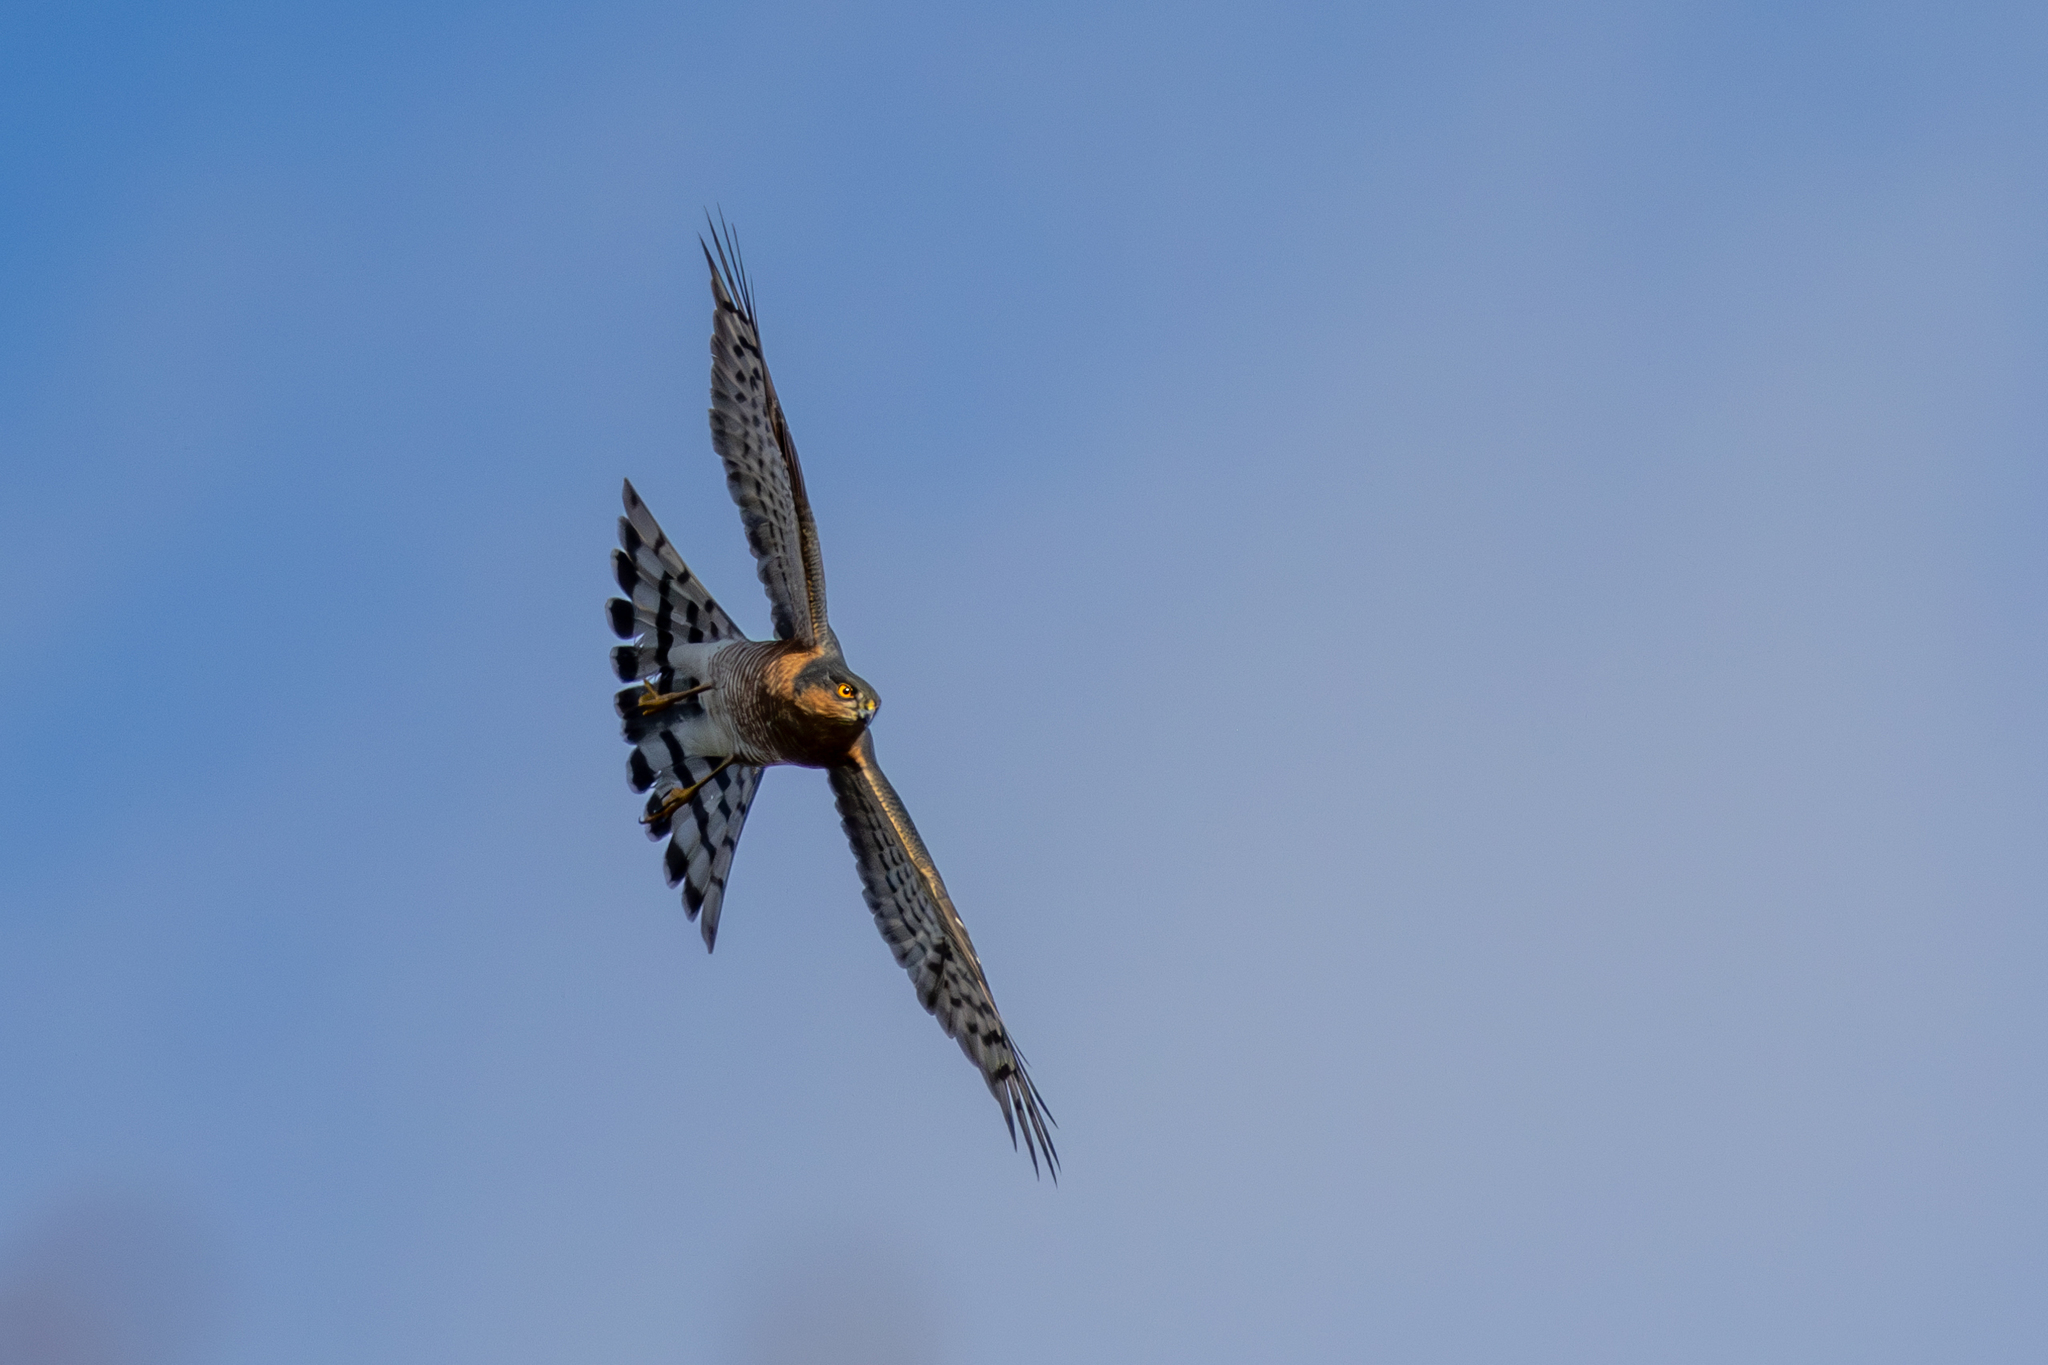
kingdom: Animalia
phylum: Chordata
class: Aves
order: Accipitriformes
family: Accipitridae
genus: Accipiter
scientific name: Accipiter nisus
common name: Eurasian sparrowhawk
